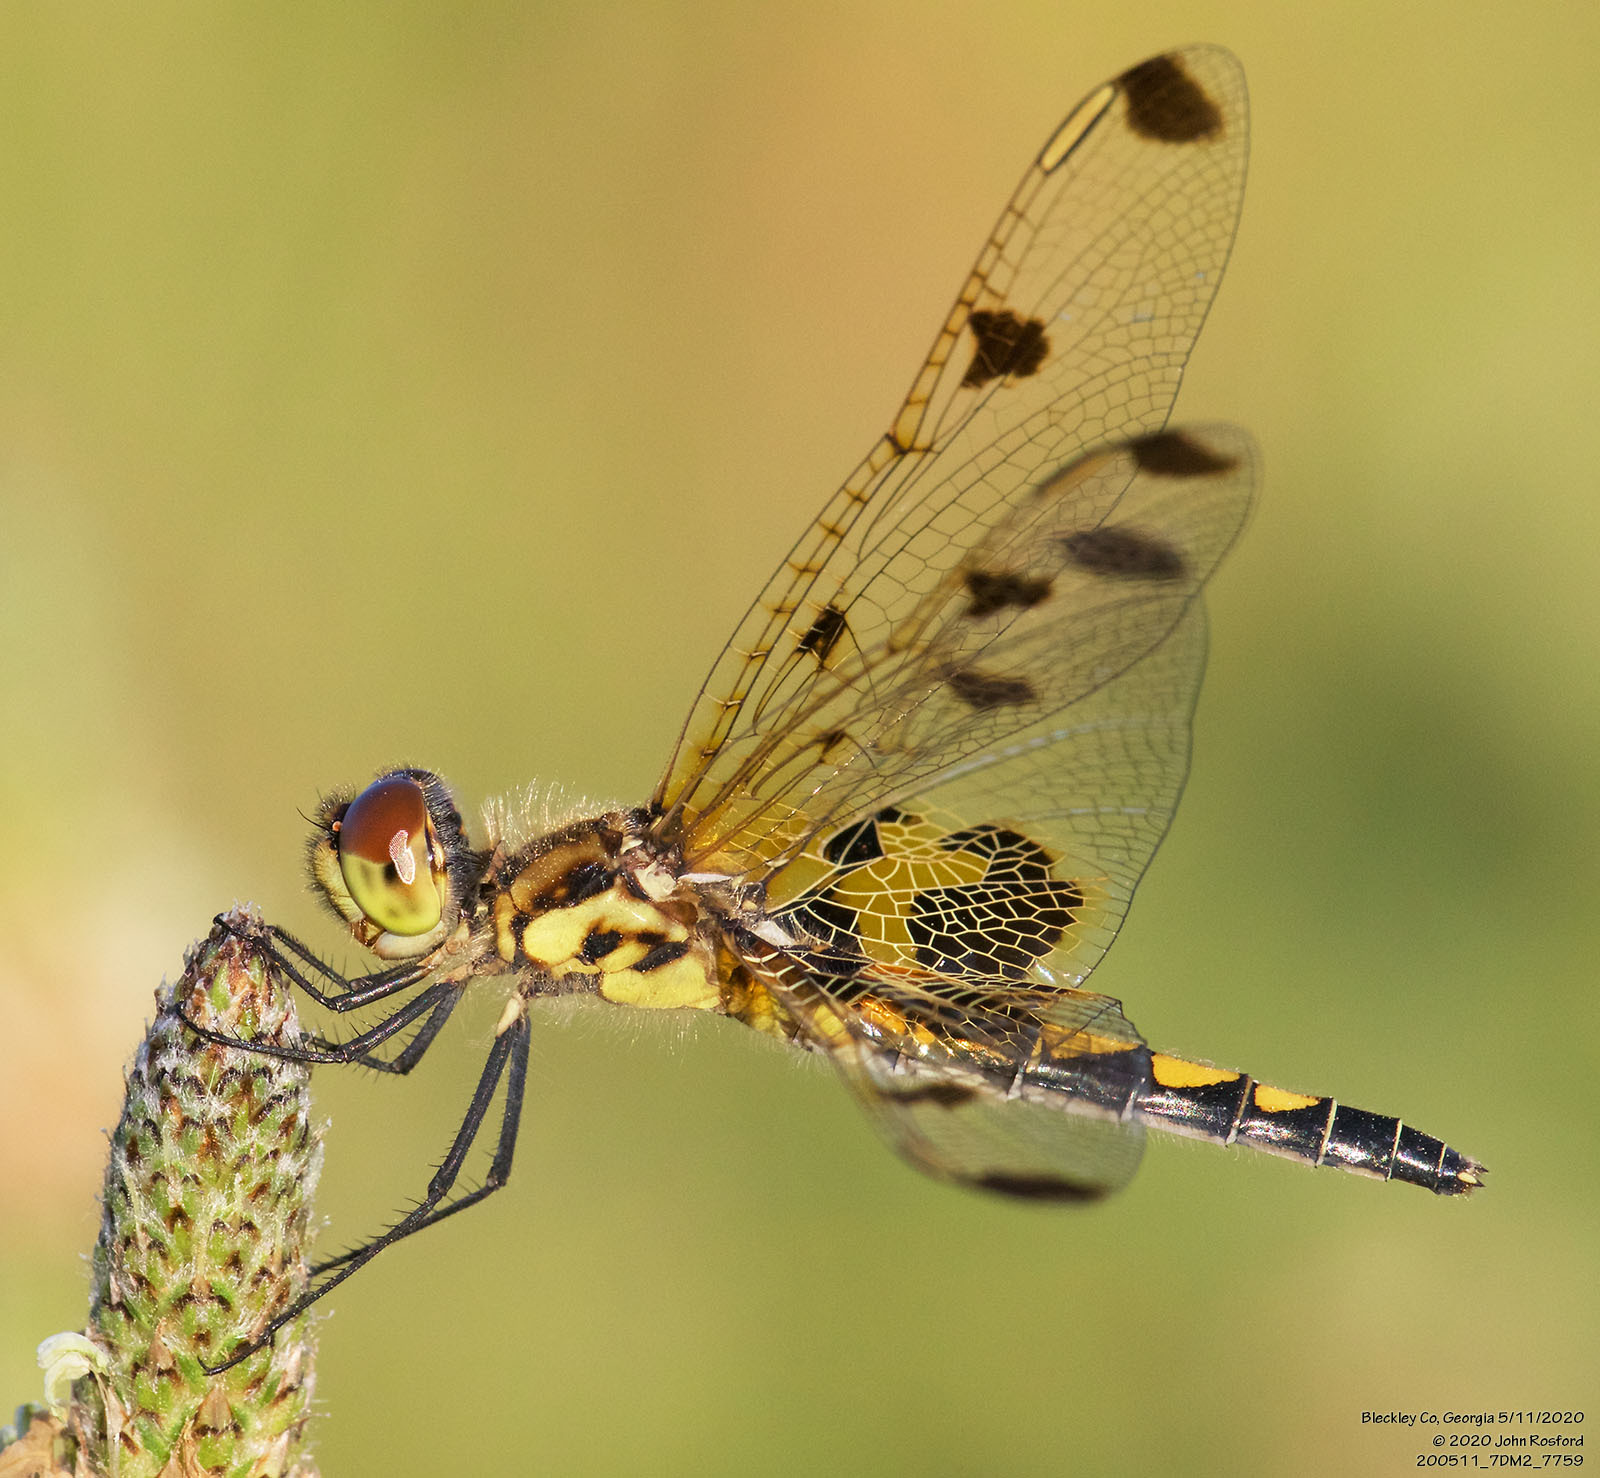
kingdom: Animalia
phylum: Arthropoda
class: Insecta
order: Odonata
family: Libellulidae
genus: Celithemis
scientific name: Celithemis elisa
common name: Calico pennant
